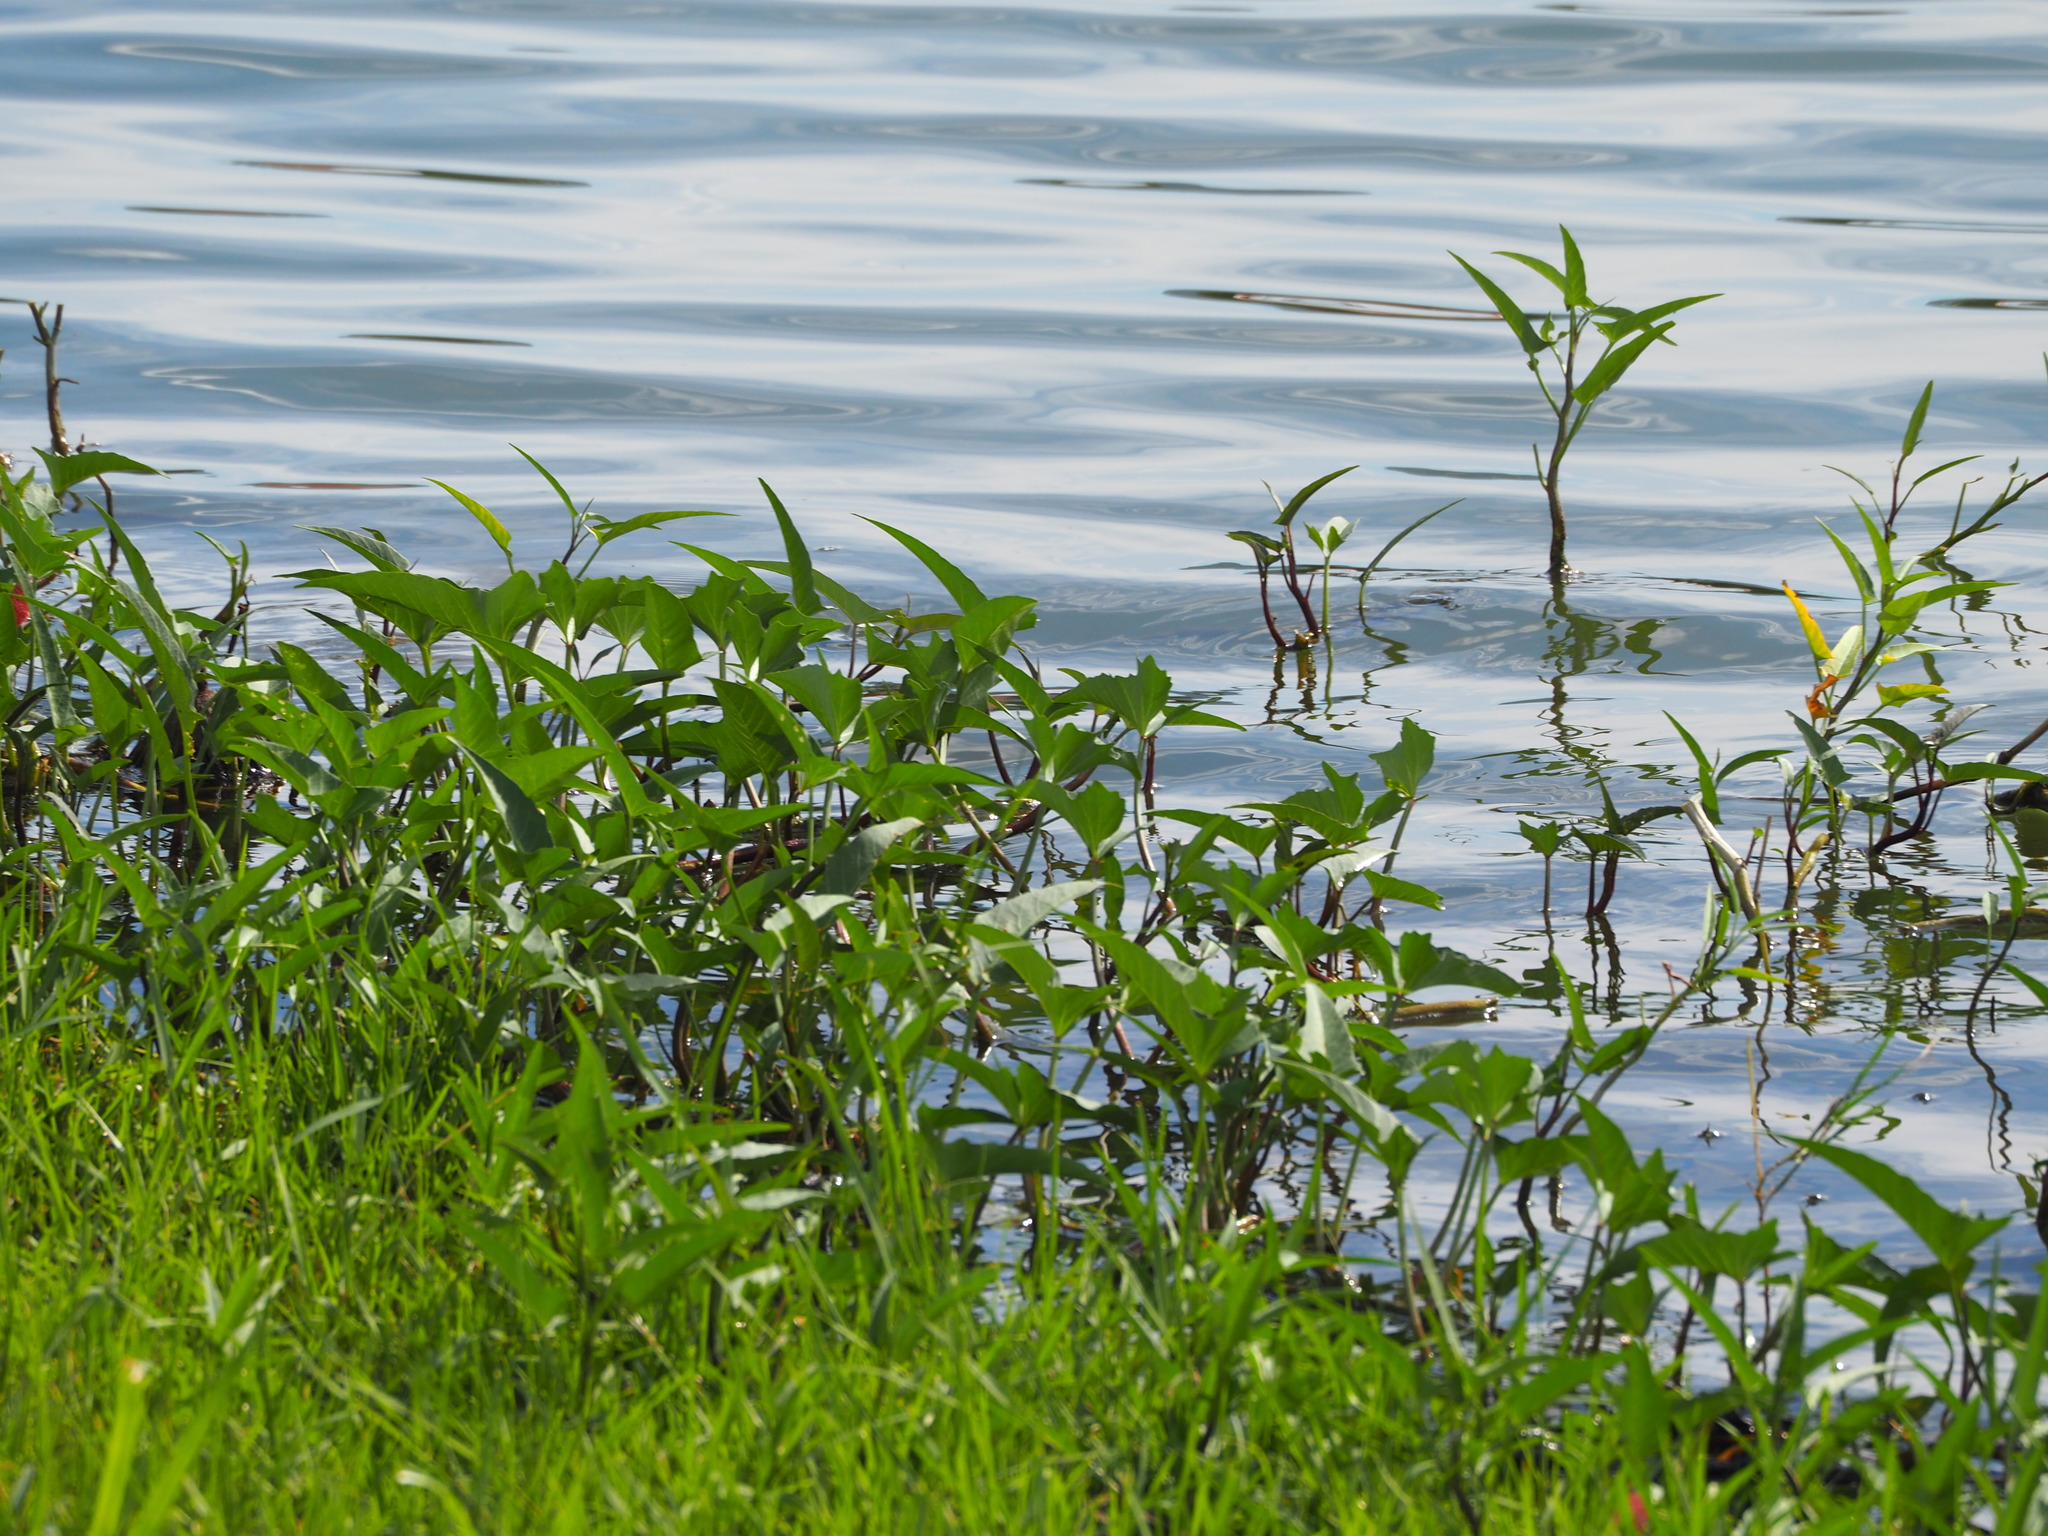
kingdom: Plantae
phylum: Tracheophyta
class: Magnoliopsida
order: Solanales
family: Convolvulaceae
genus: Ipomoea
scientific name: Ipomoea aquatica
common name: Swamp morning-glory
